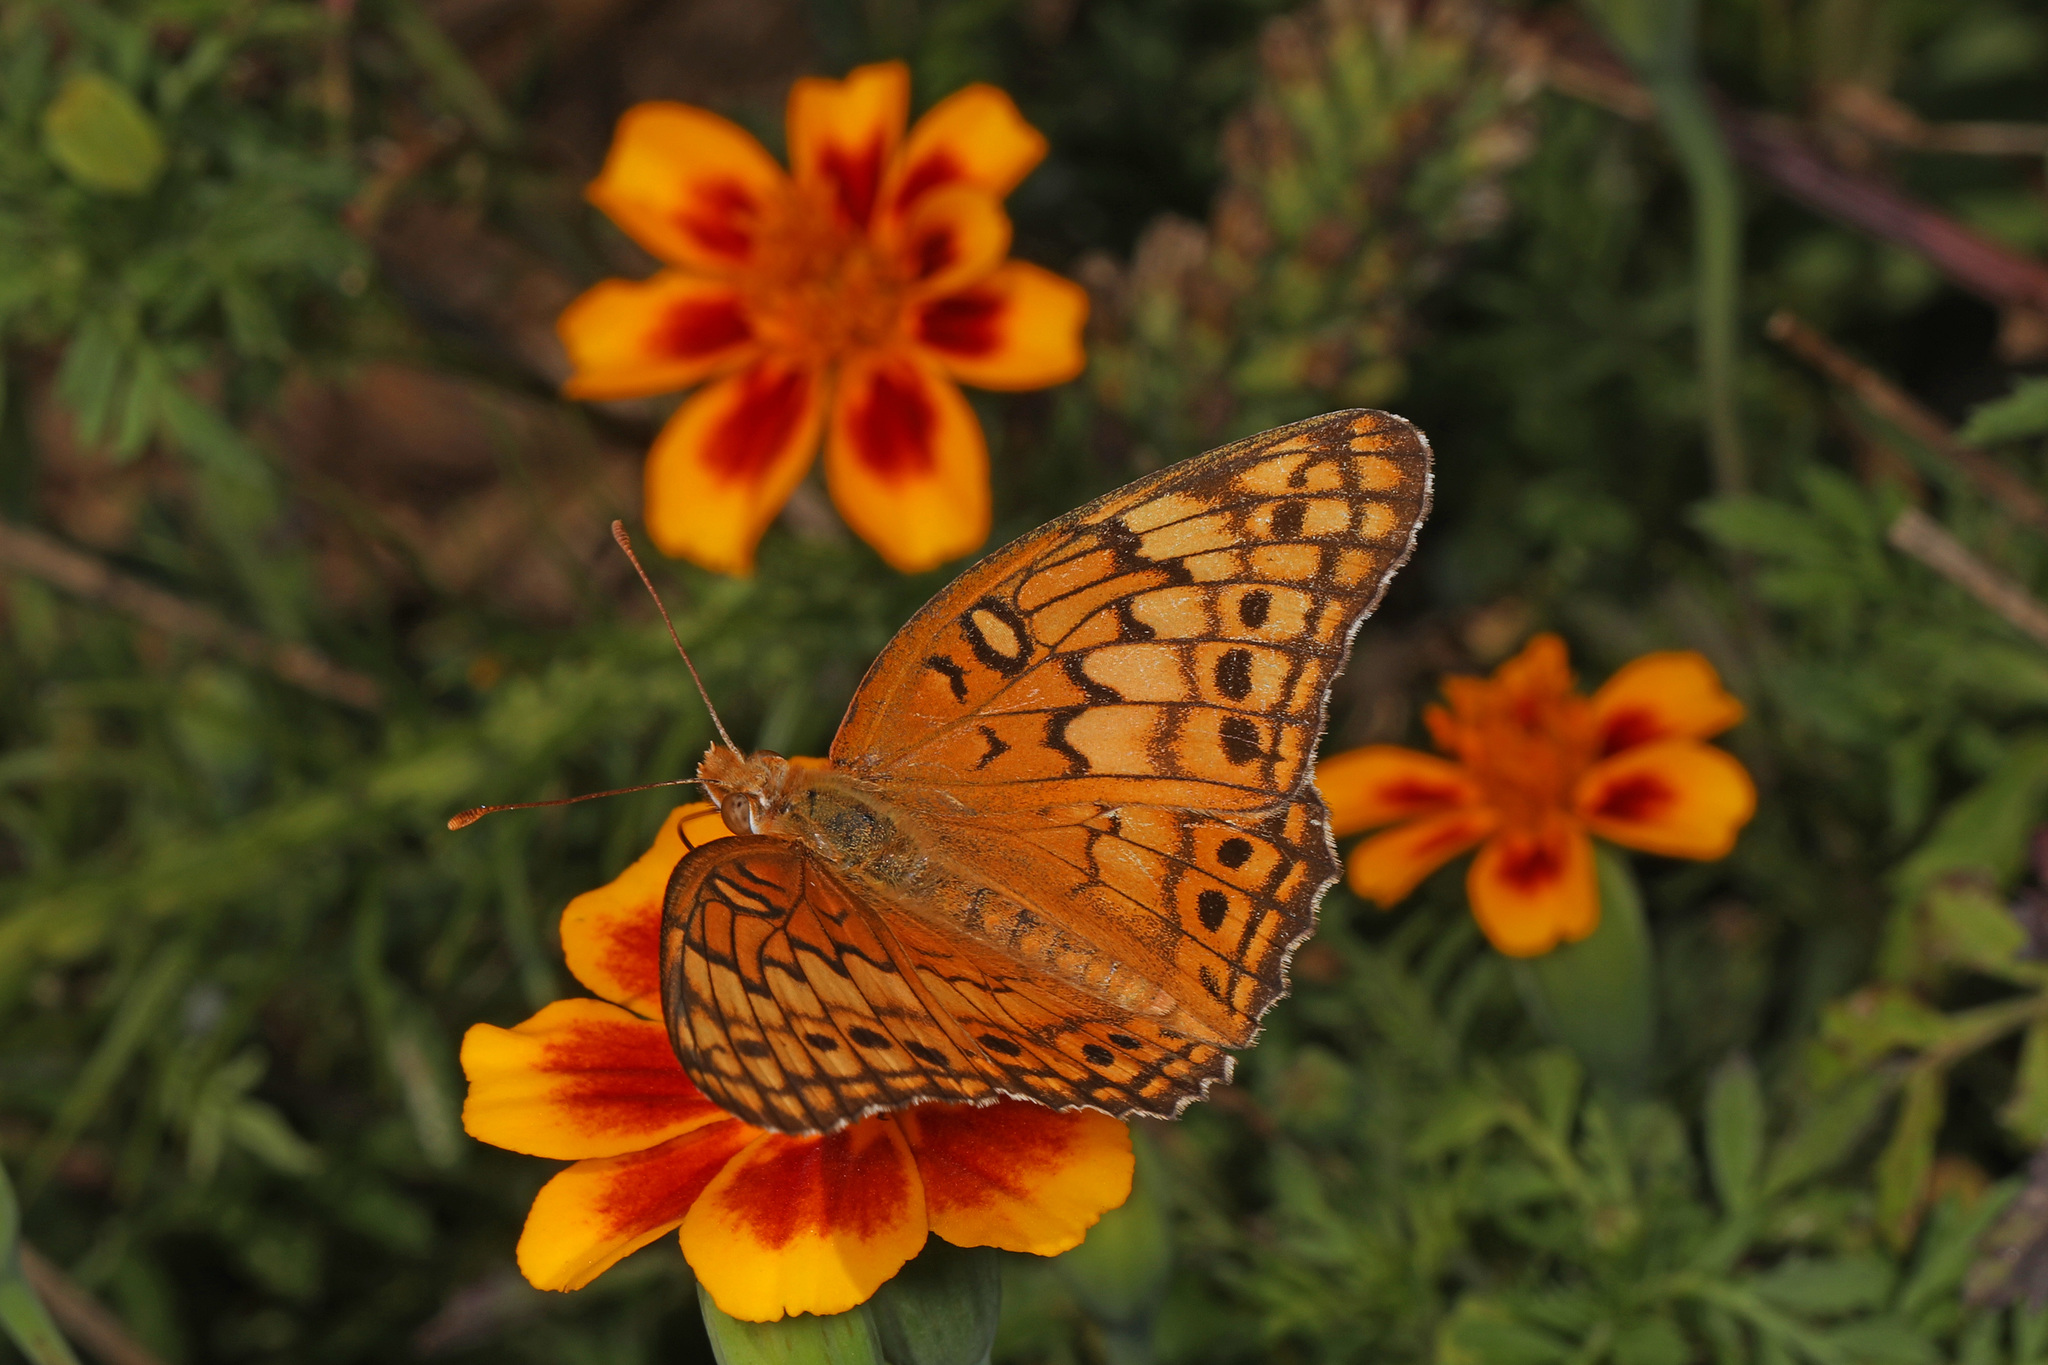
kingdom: Animalia
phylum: Arthropoda
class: Insecta
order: Lepidoptera
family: Nymphalidae
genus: Euptoieta
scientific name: Euptoieta claudia
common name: Variegated fritillary
